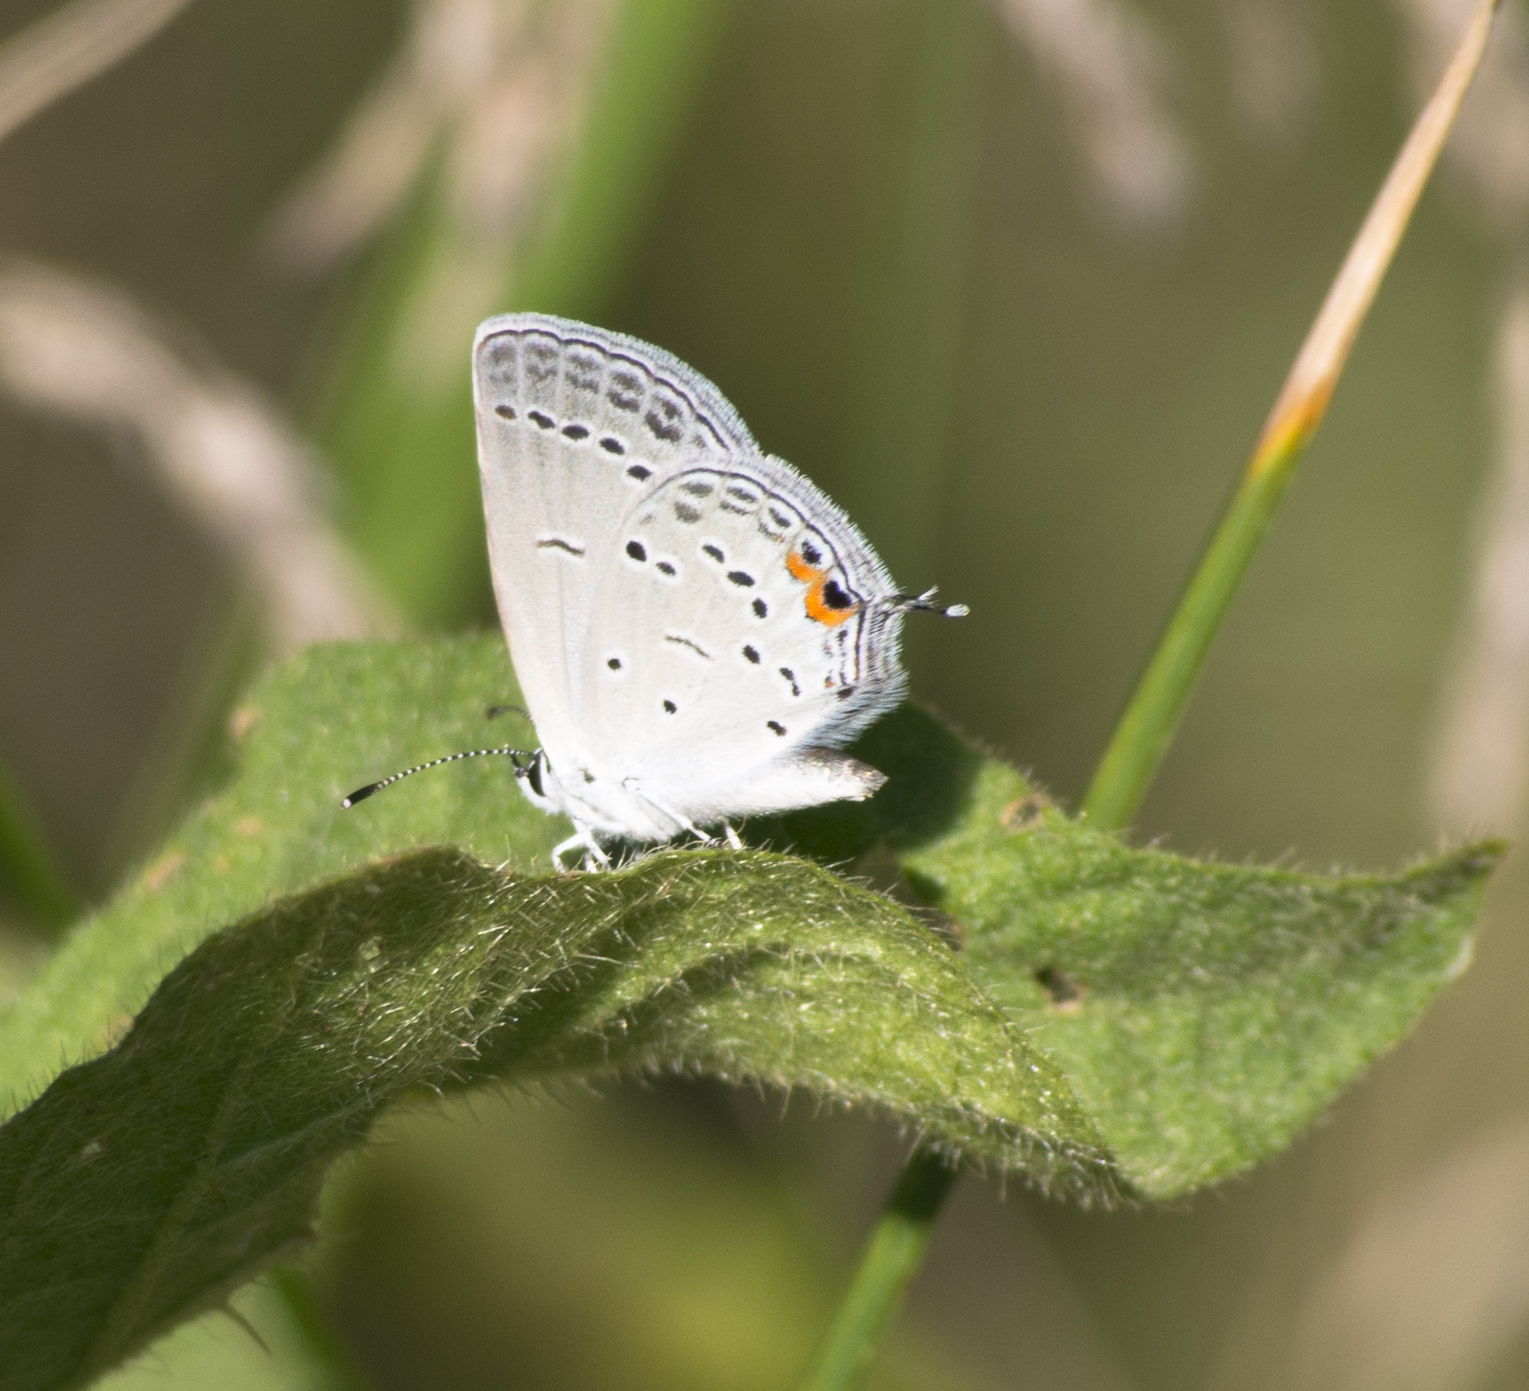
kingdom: Animalia
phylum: Arthropoda
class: Insecta
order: Lepidoptera
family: Lycaenidae
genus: Elkalyce
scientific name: Elkalyce comyntas
